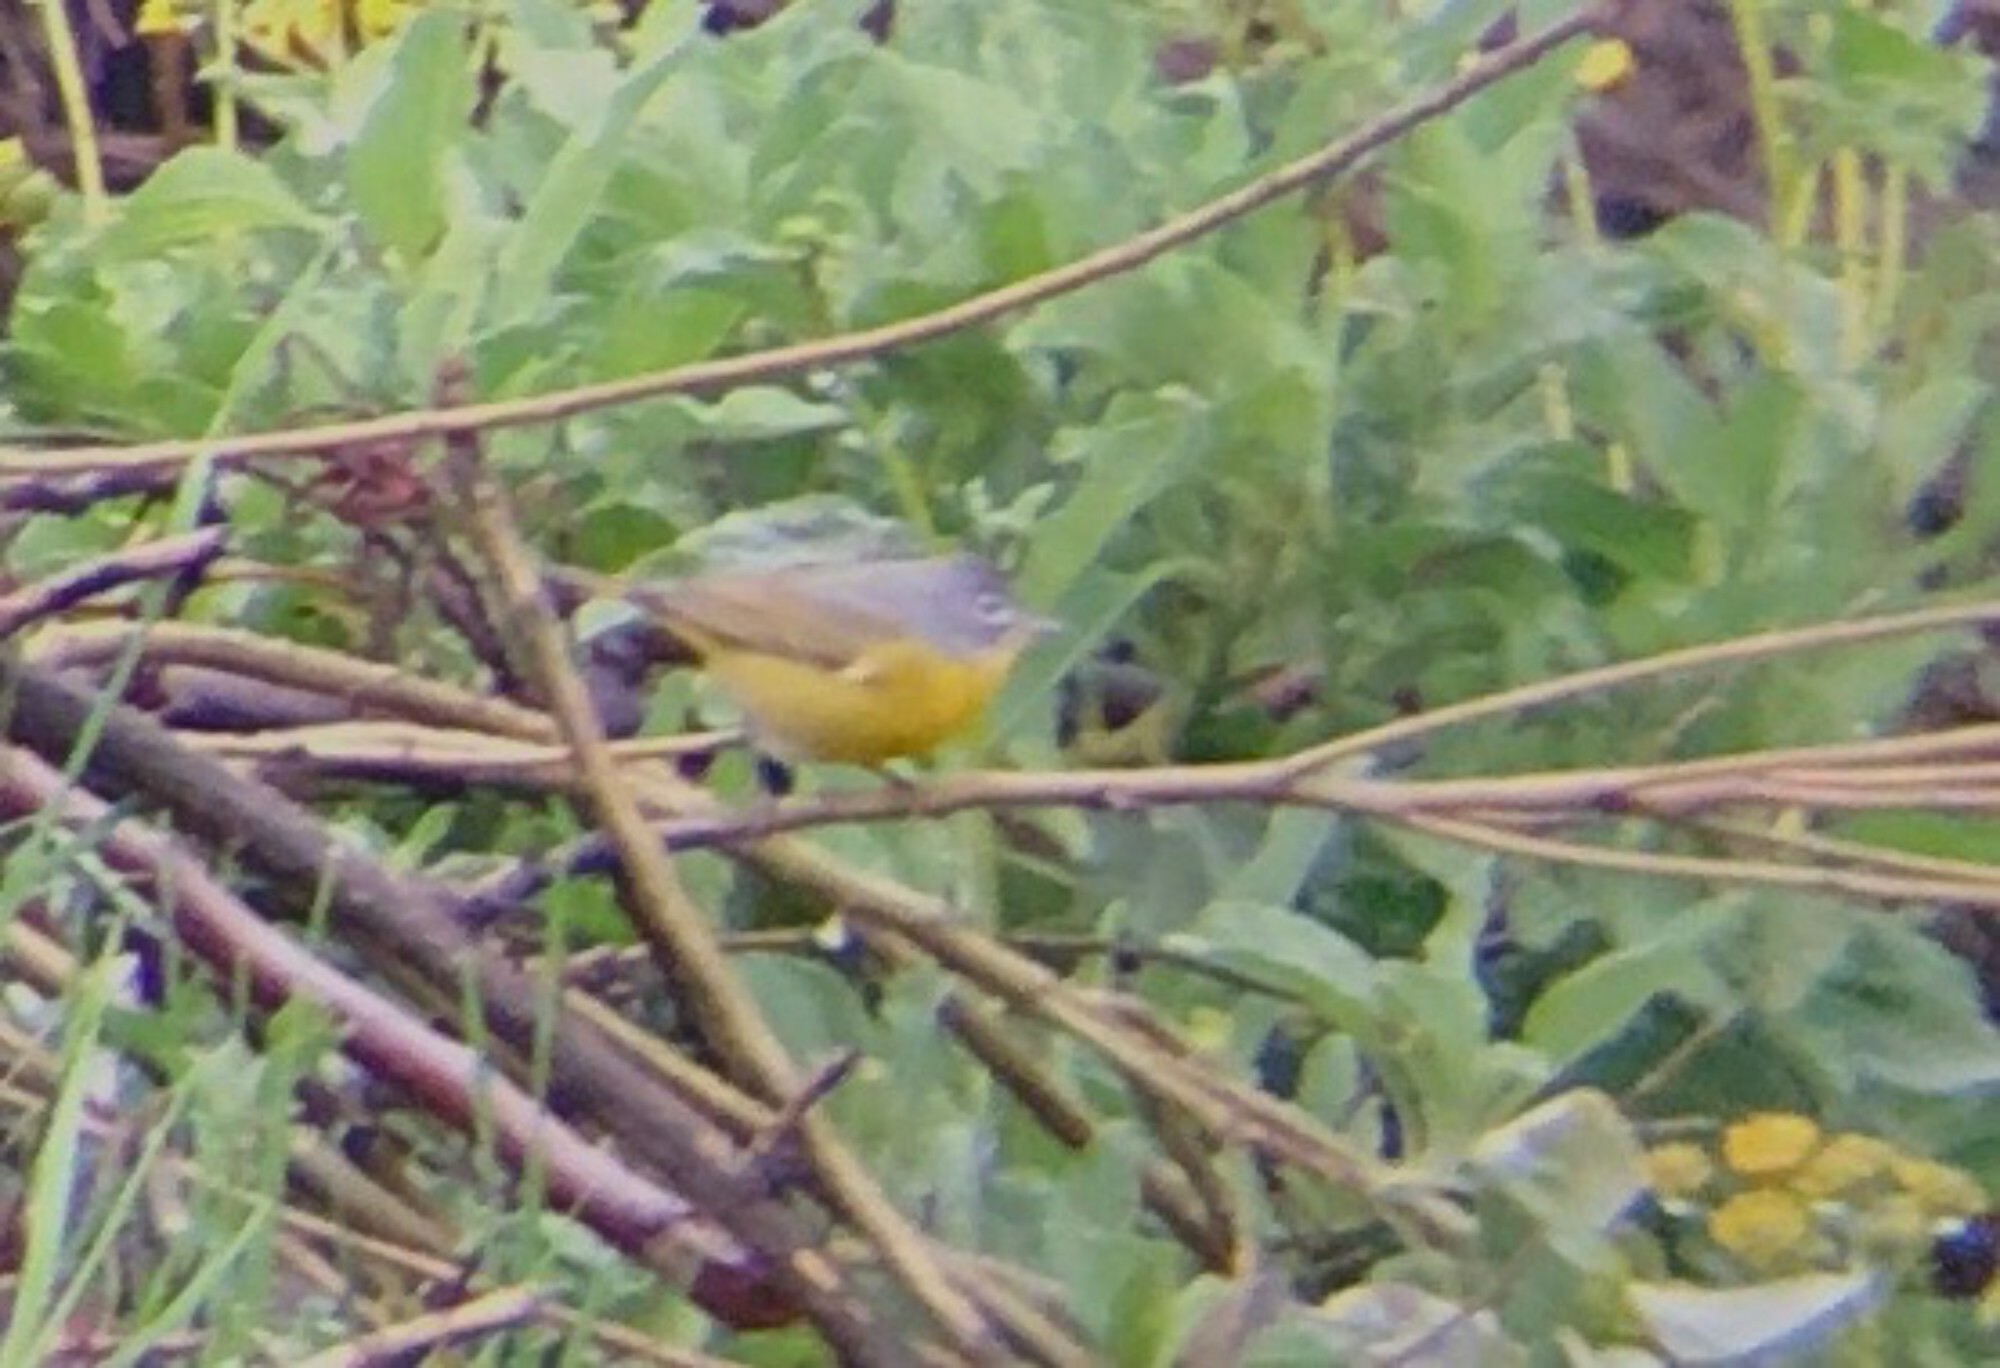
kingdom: Animalia
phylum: Chordata
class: Aves
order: Passeriformes
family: Parulidae
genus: Leiothlypis
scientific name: Leiothlypis ruficapilla
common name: Nashville warbler
